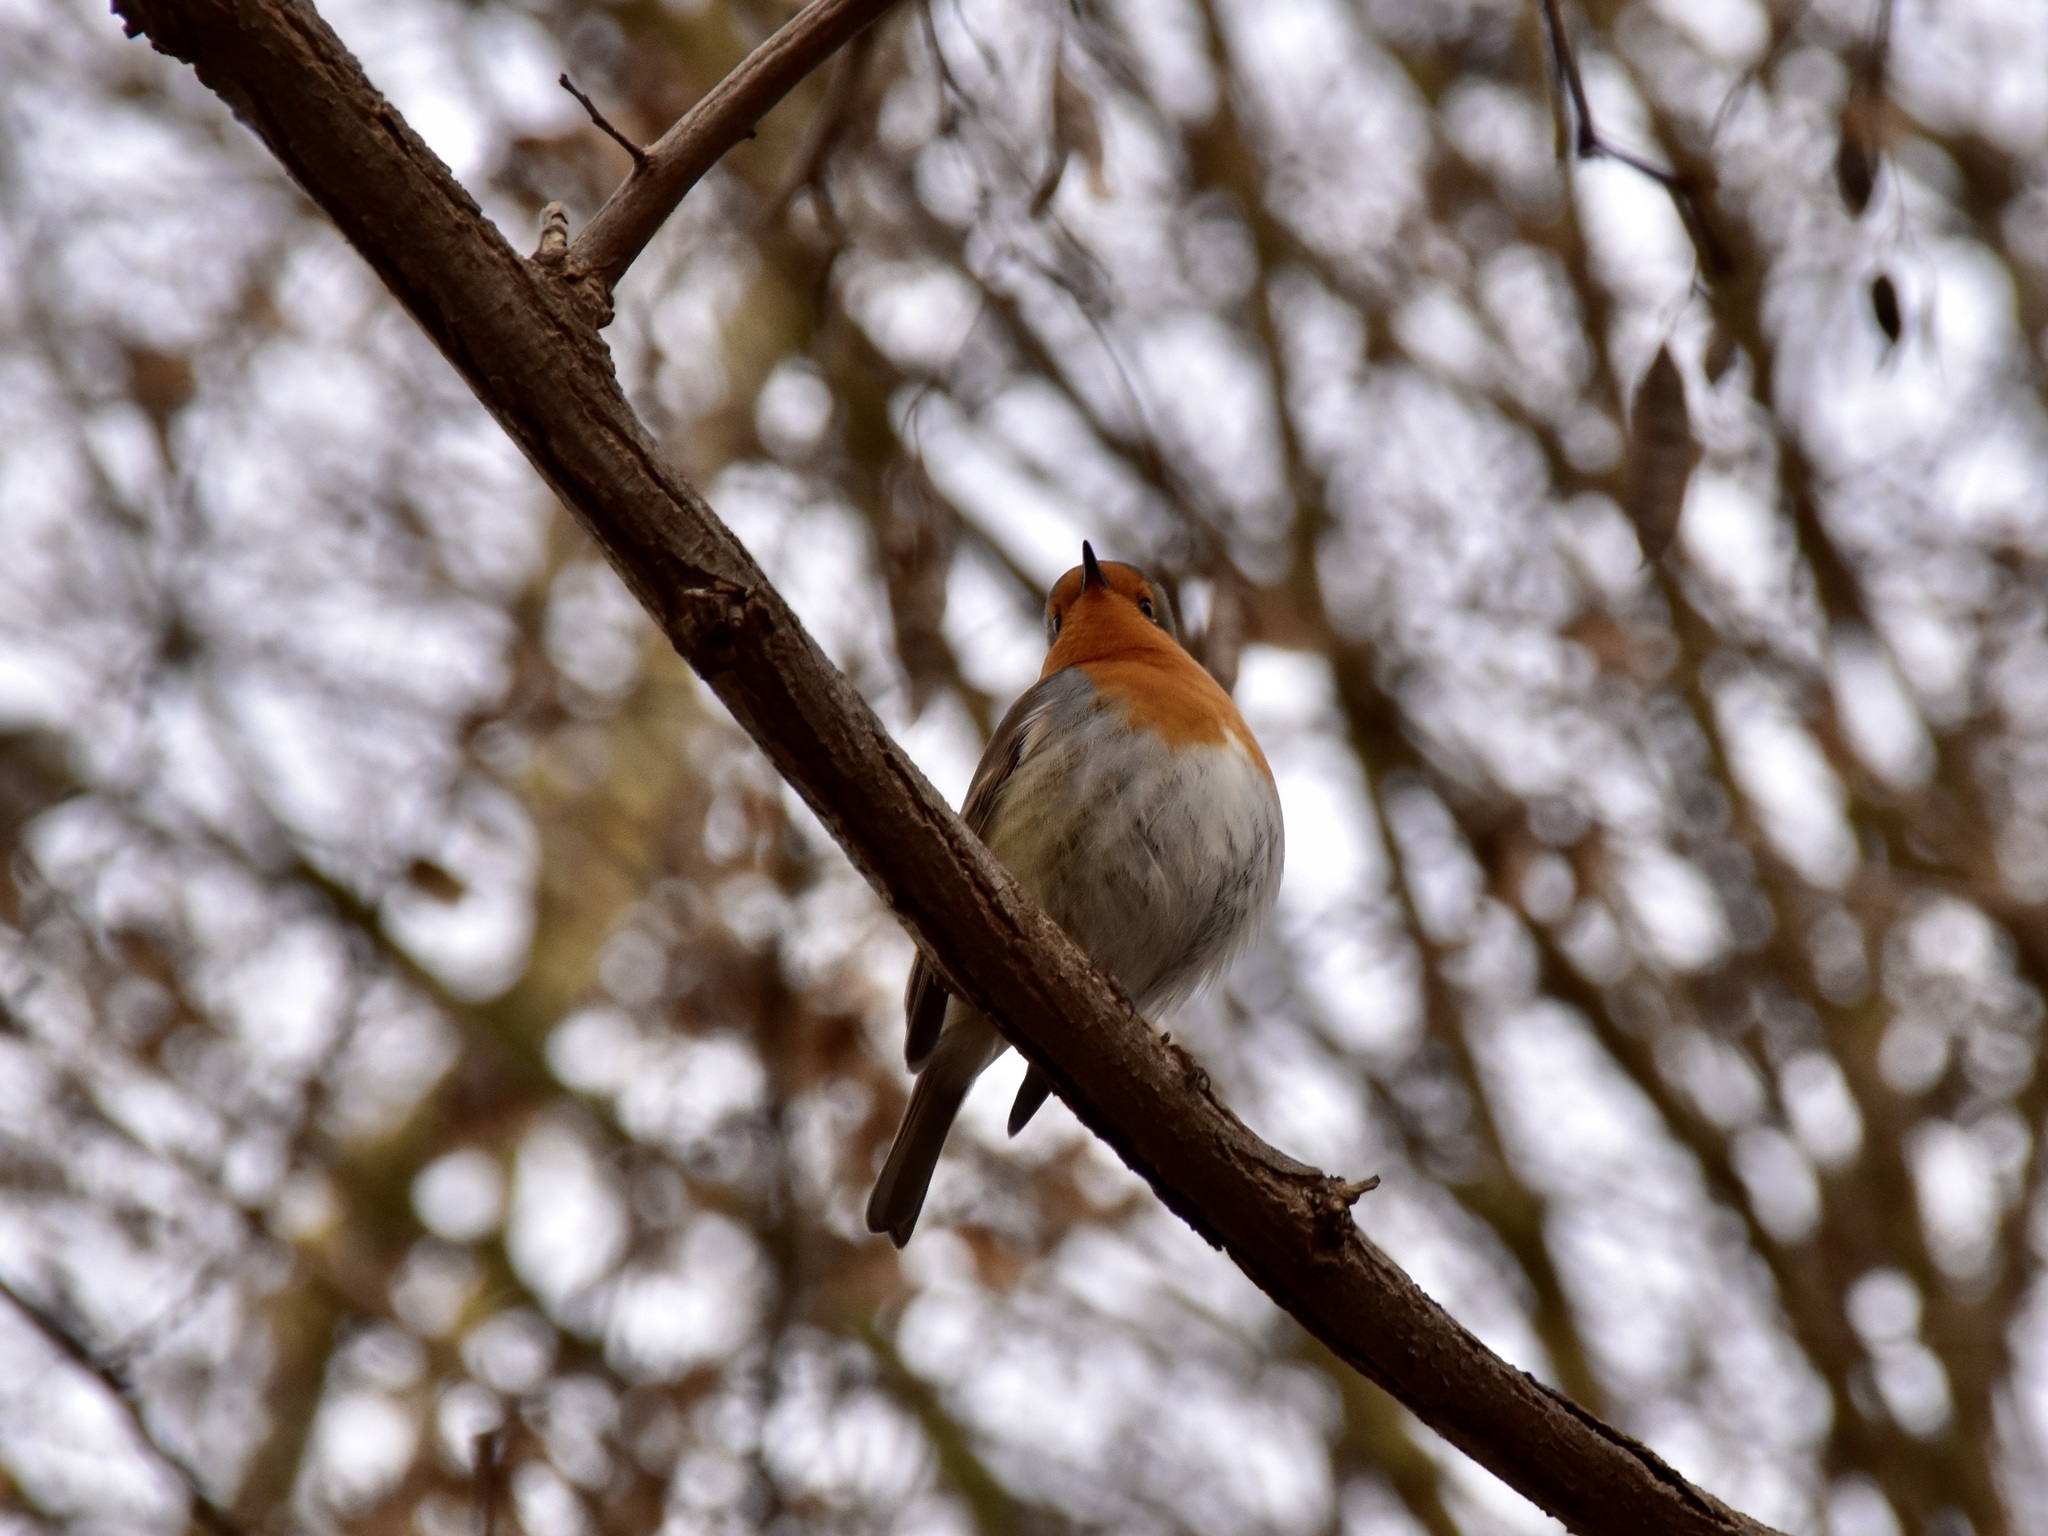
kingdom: Animalia
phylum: Chordata
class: Aves
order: Passeriformes
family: Muscicapidae
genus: Erithacus
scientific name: Erithacus rubecula
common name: European robin
